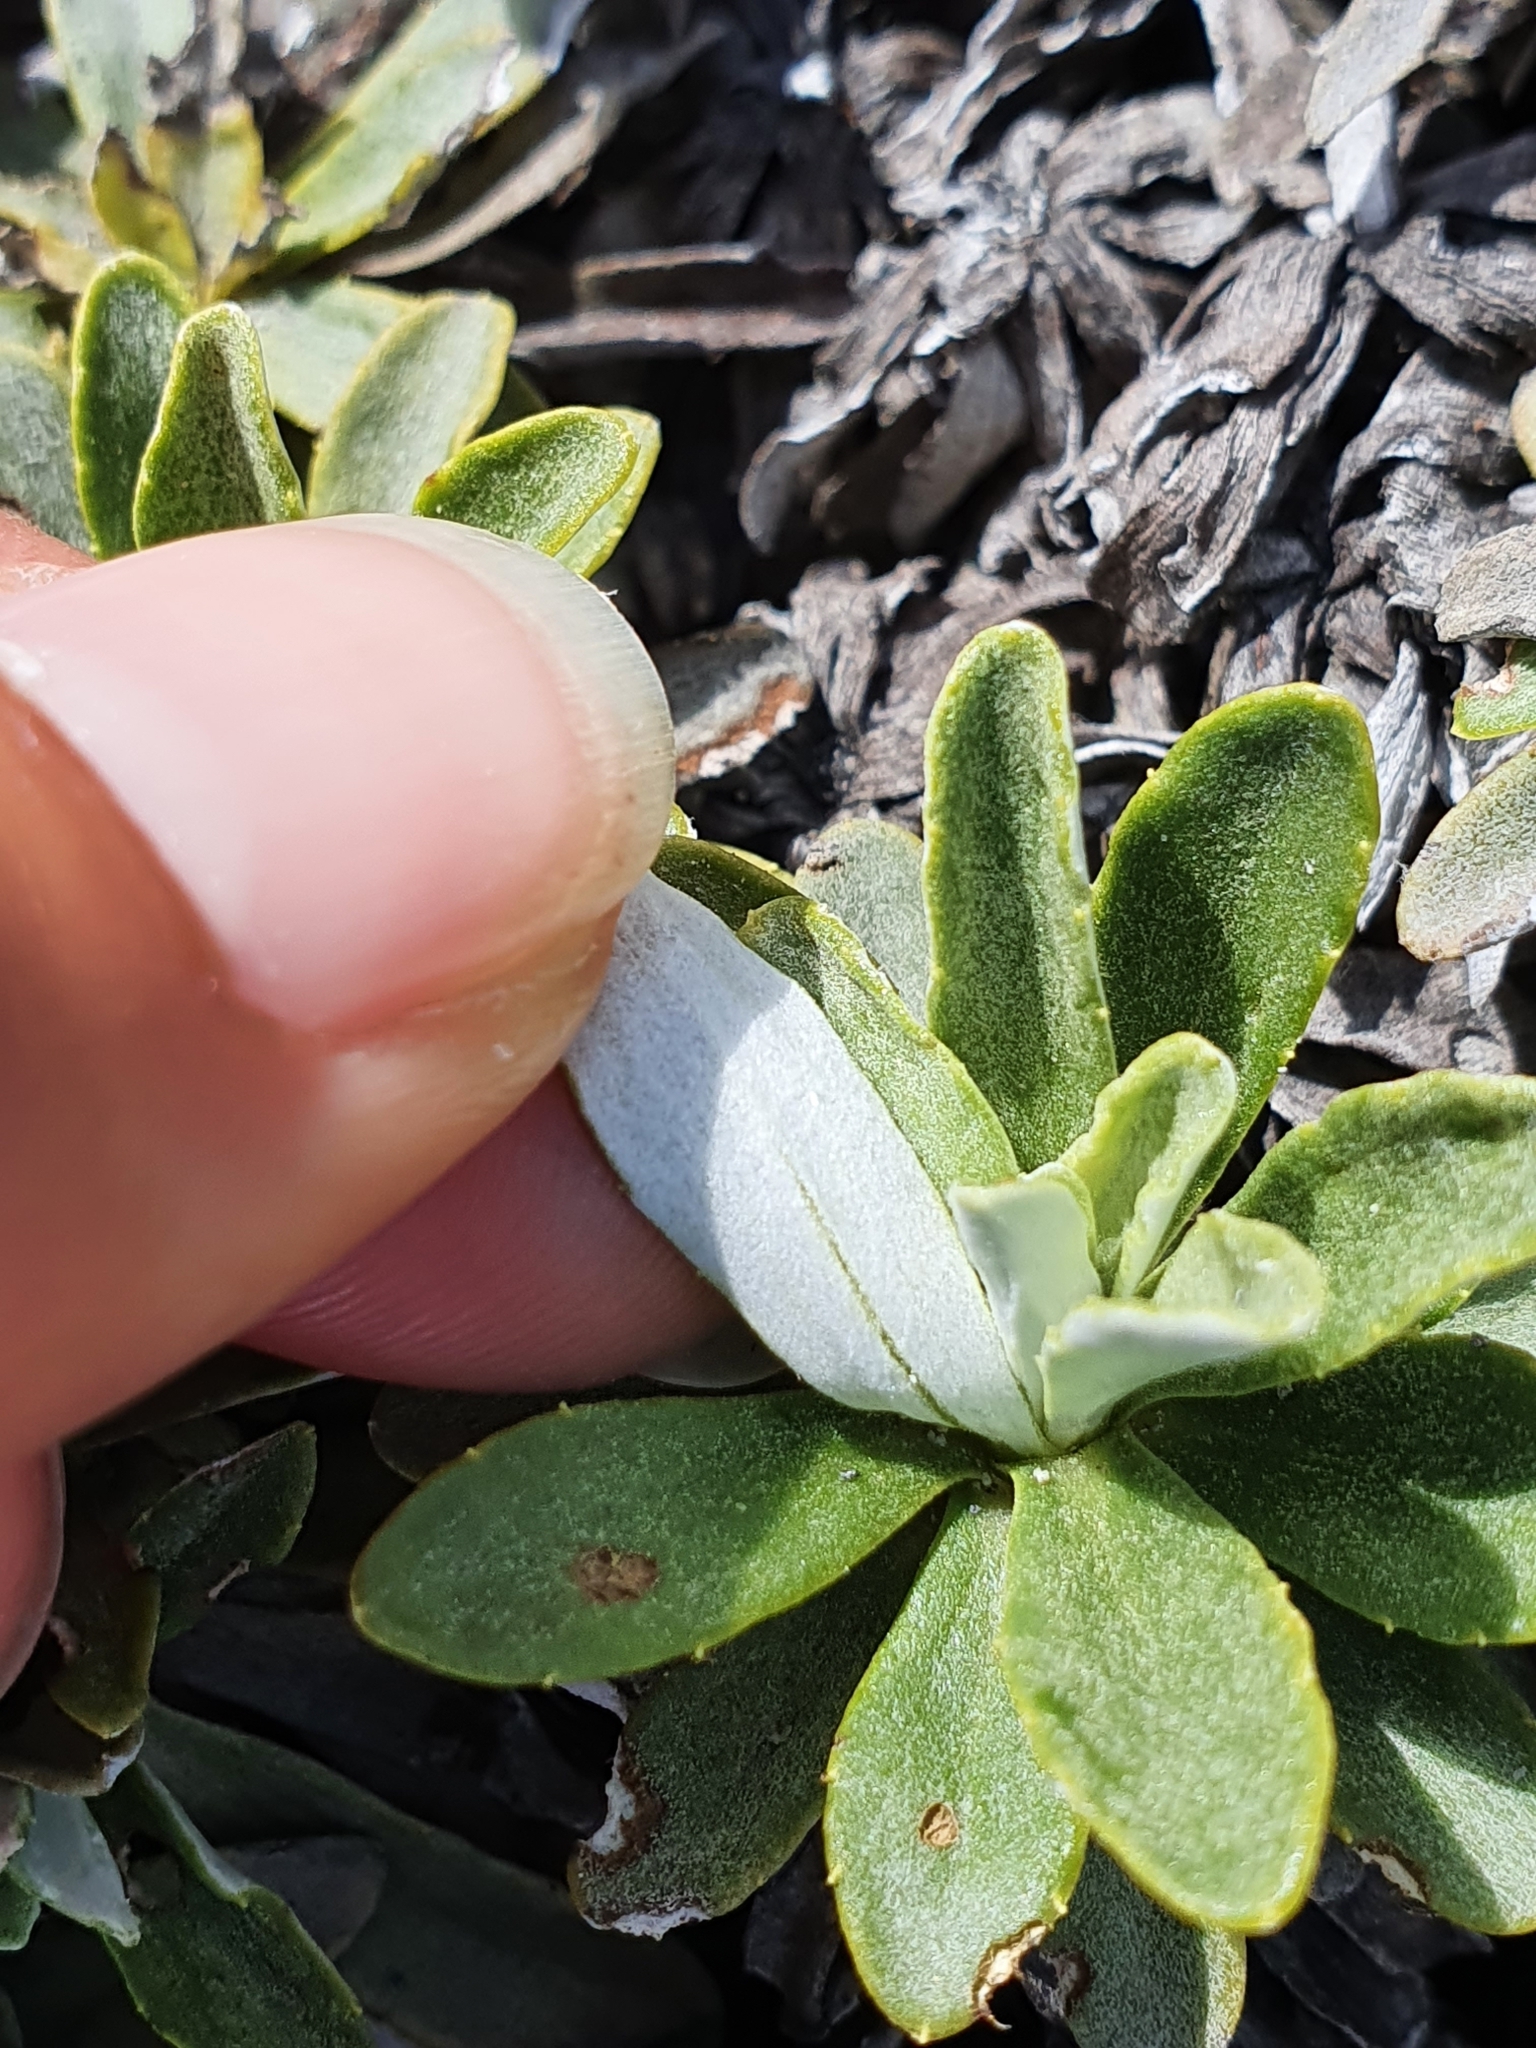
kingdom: Plantae
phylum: Tracheophyta
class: Magnoliopsida
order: Asterales
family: Asteraceae
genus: Celmisia
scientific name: Celmisia angustifolia
